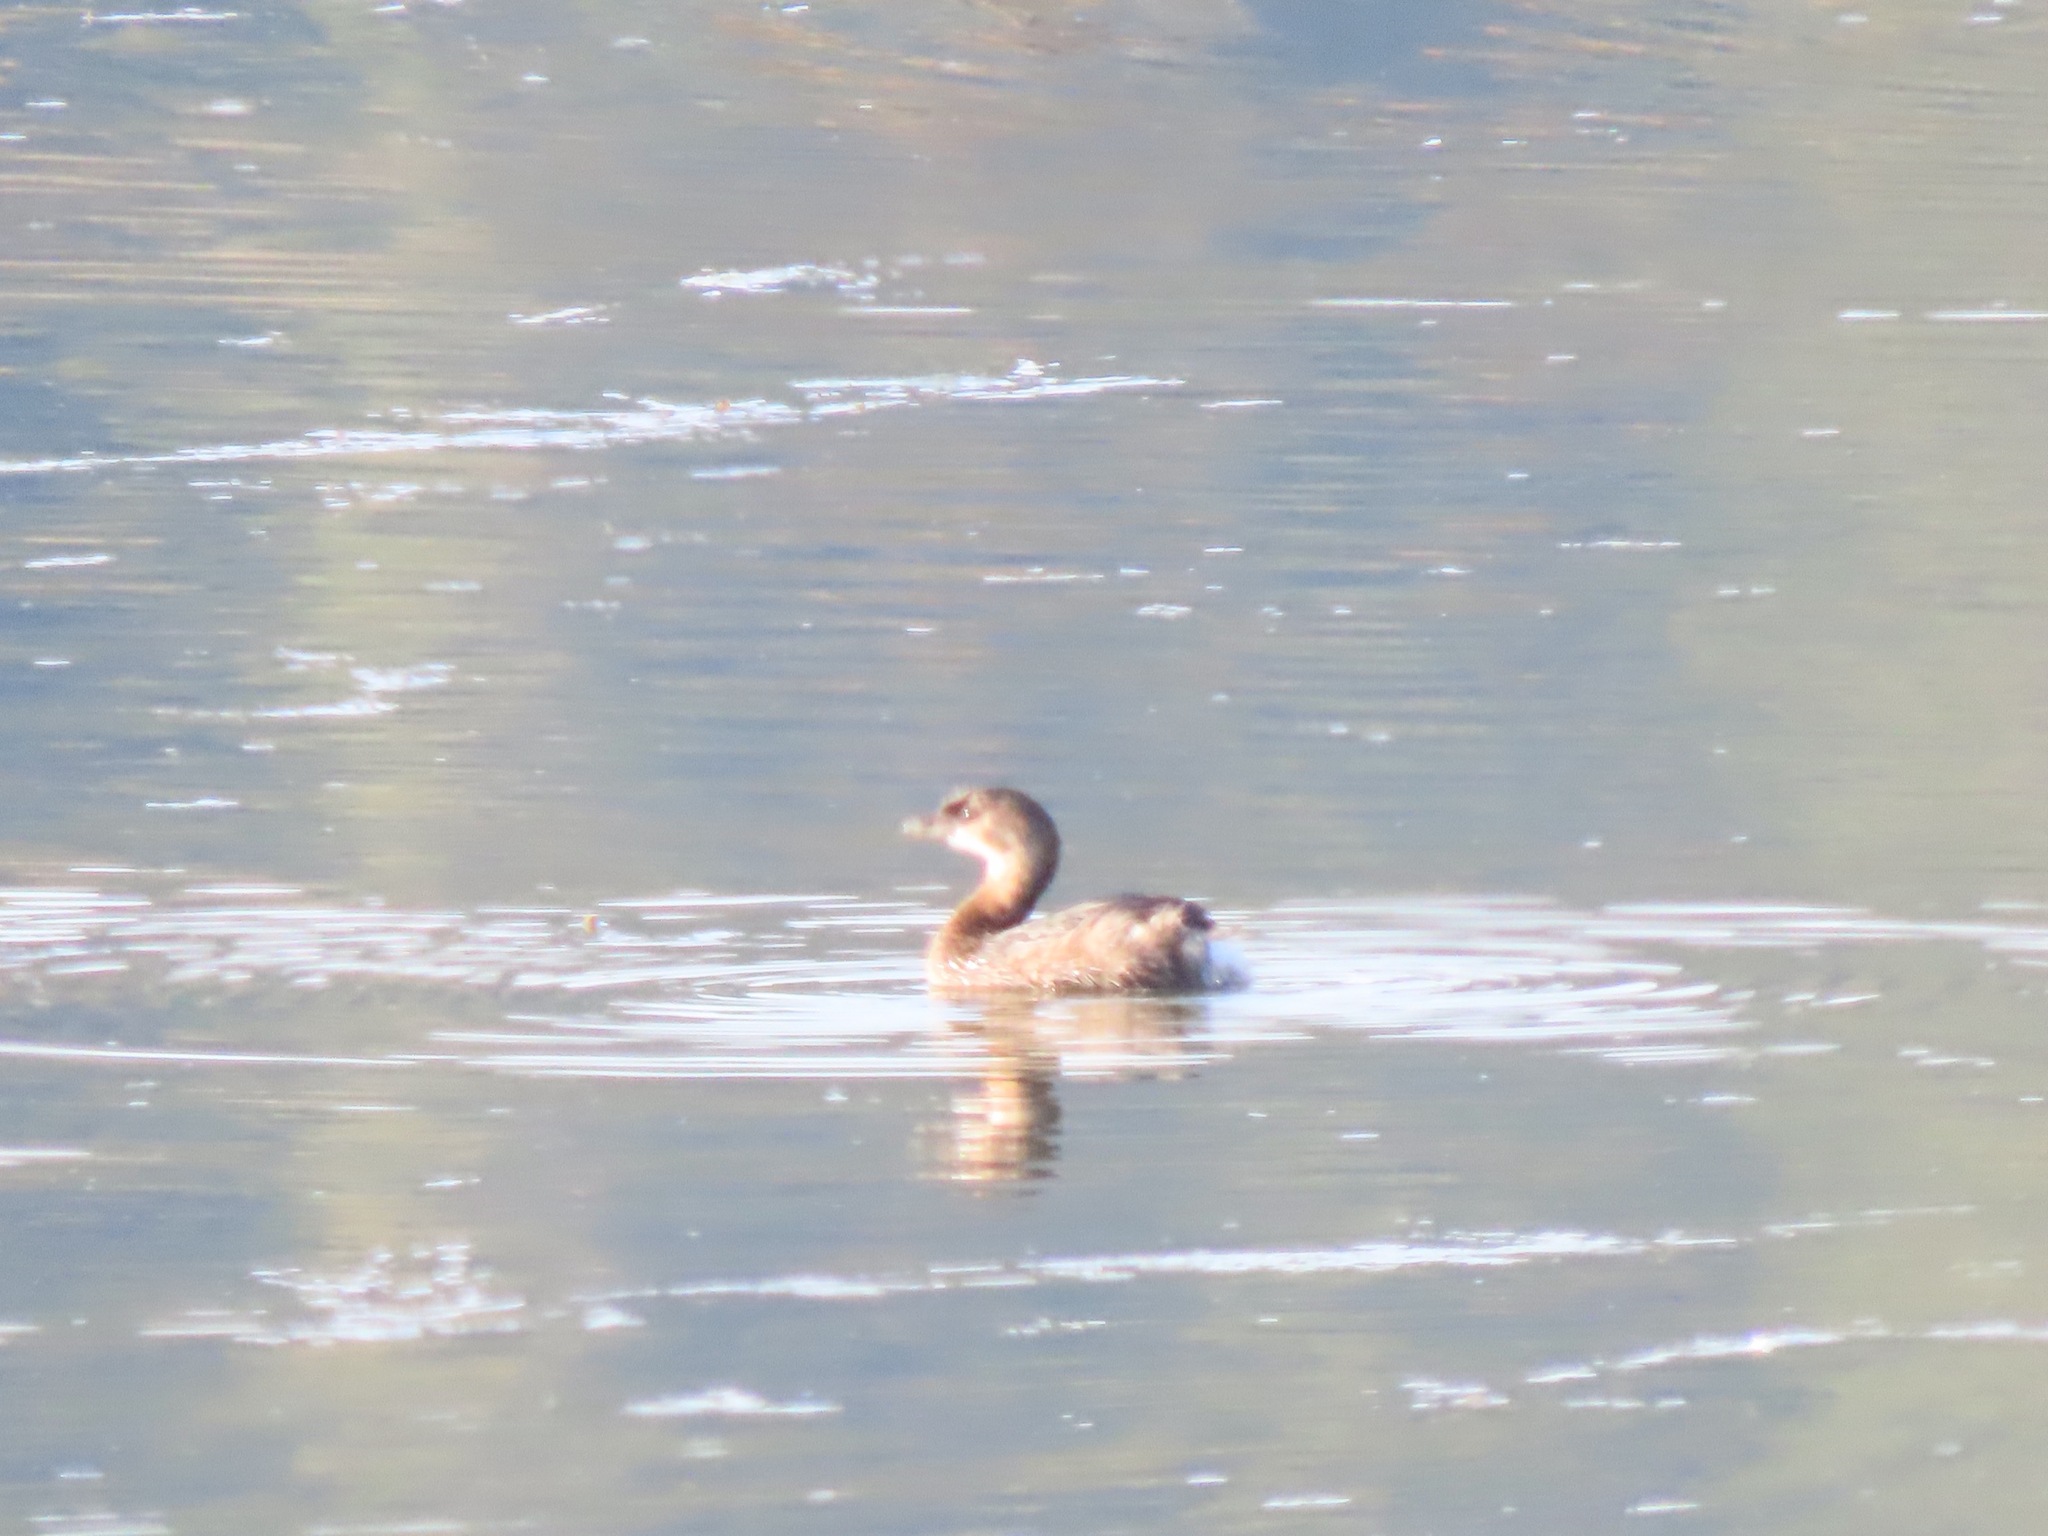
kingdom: Animalia
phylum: Chordata
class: Aves
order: Podicipediformes
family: Podicipedidae
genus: Podilymbus
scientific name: Podilymbus podiceps
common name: Pied-billed grebe
